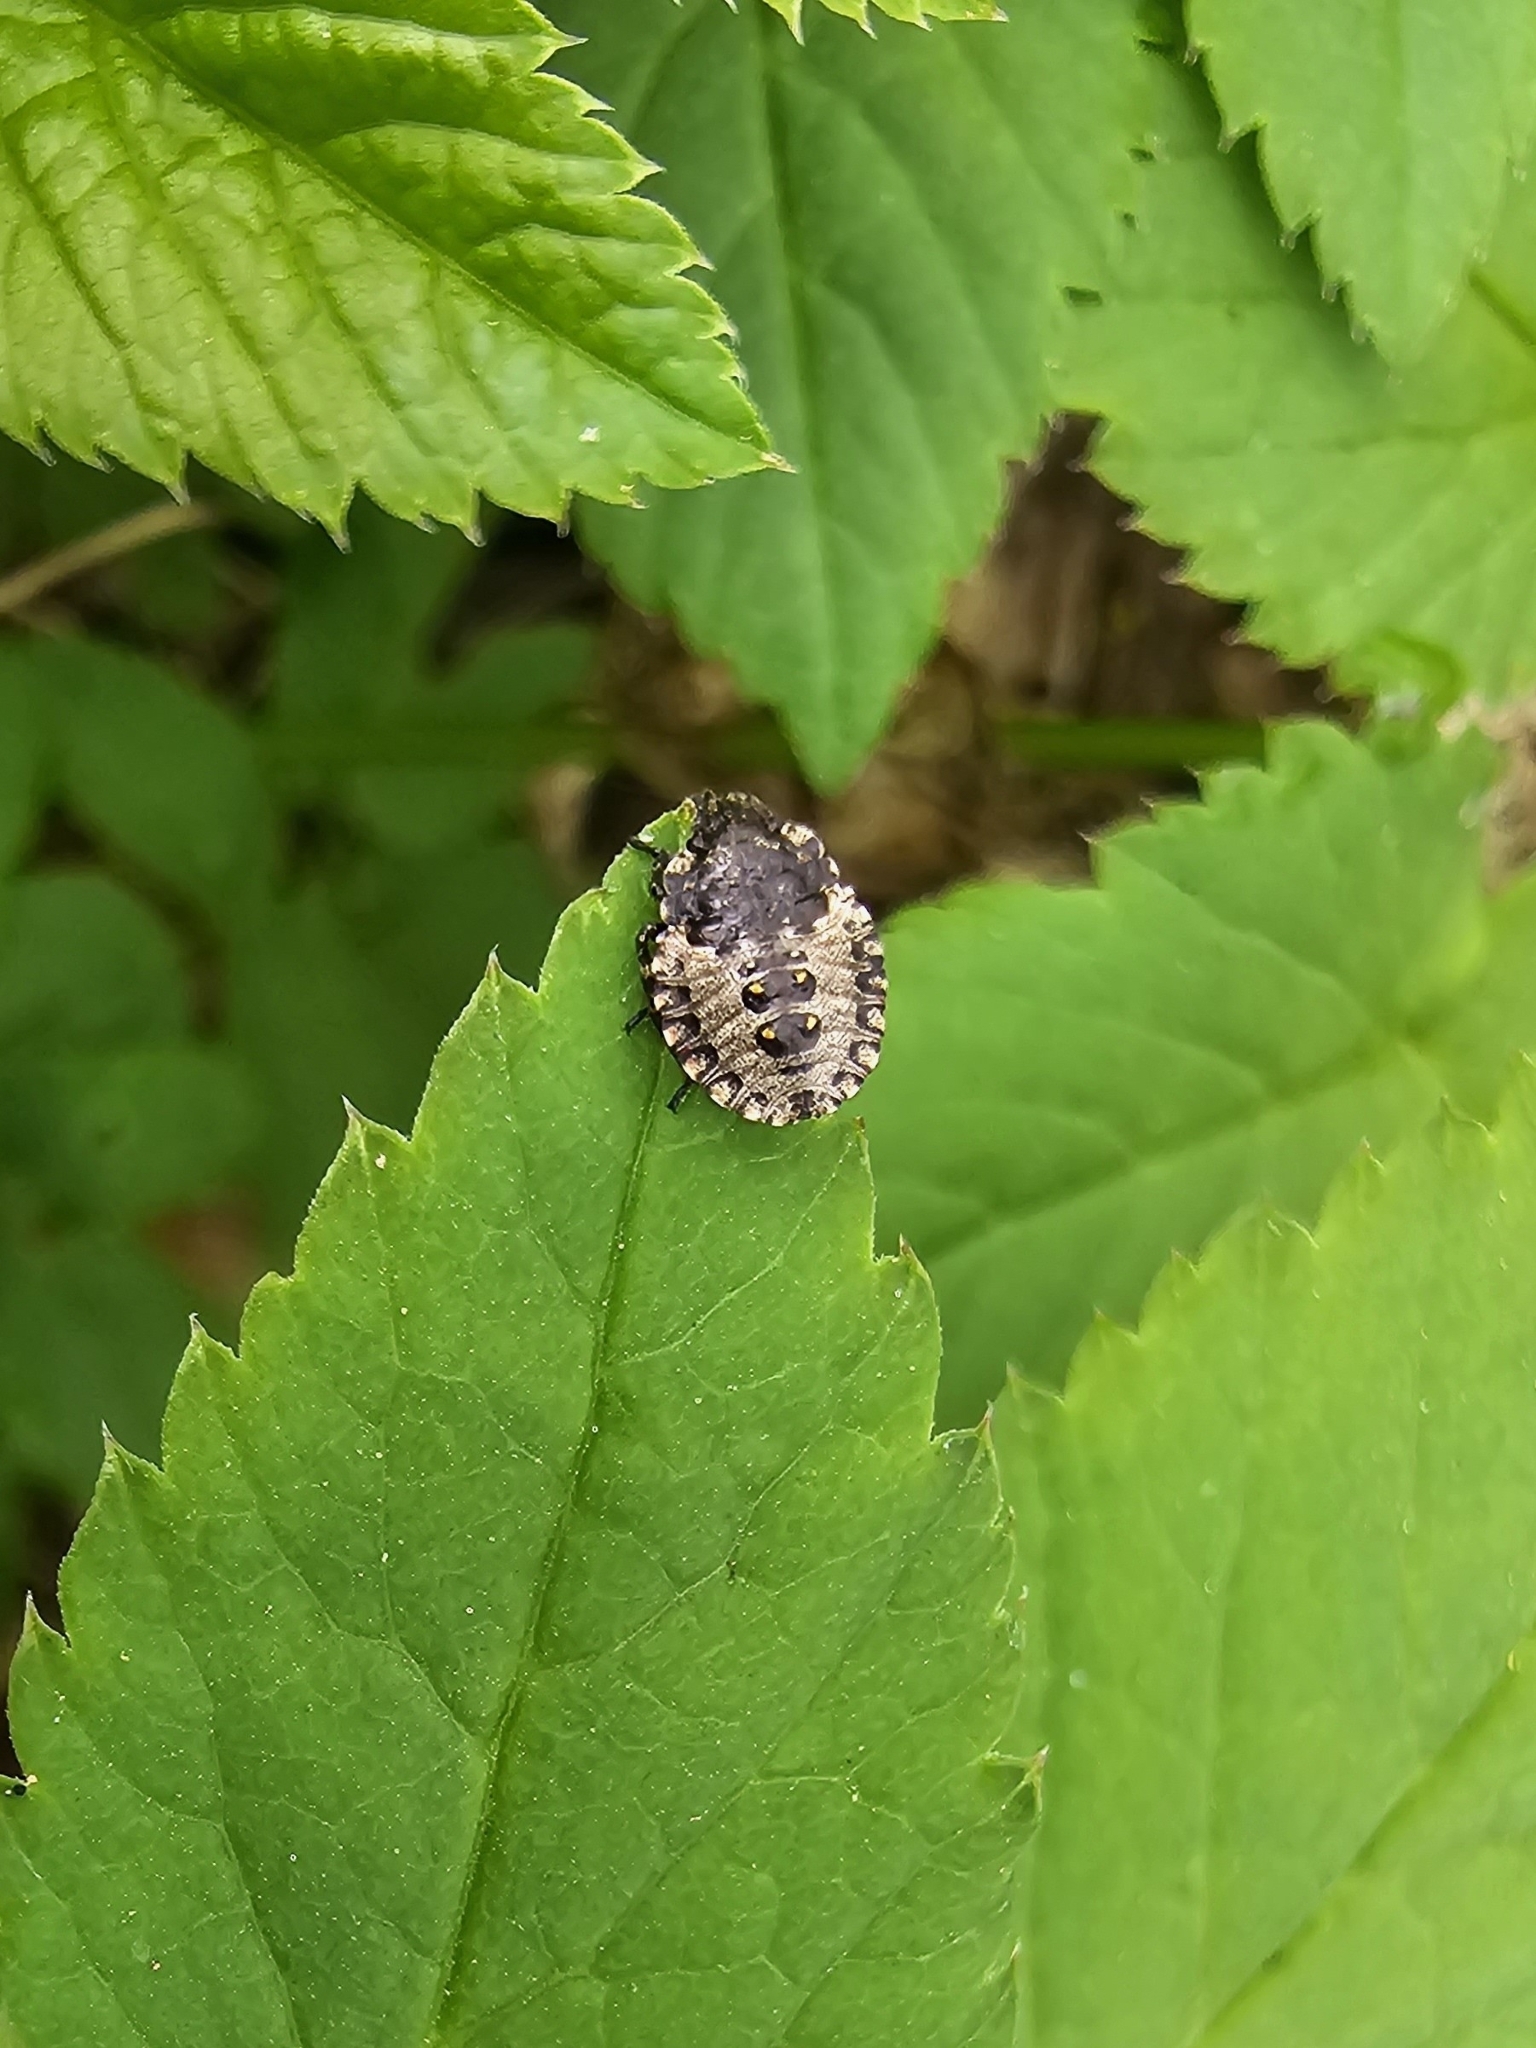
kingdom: Animalia
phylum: Arthropoda
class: Insecta
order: Hemiptera
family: Pentatomidae
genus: Pentatoma
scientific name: Pentatoma rufipes
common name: Forest bug
